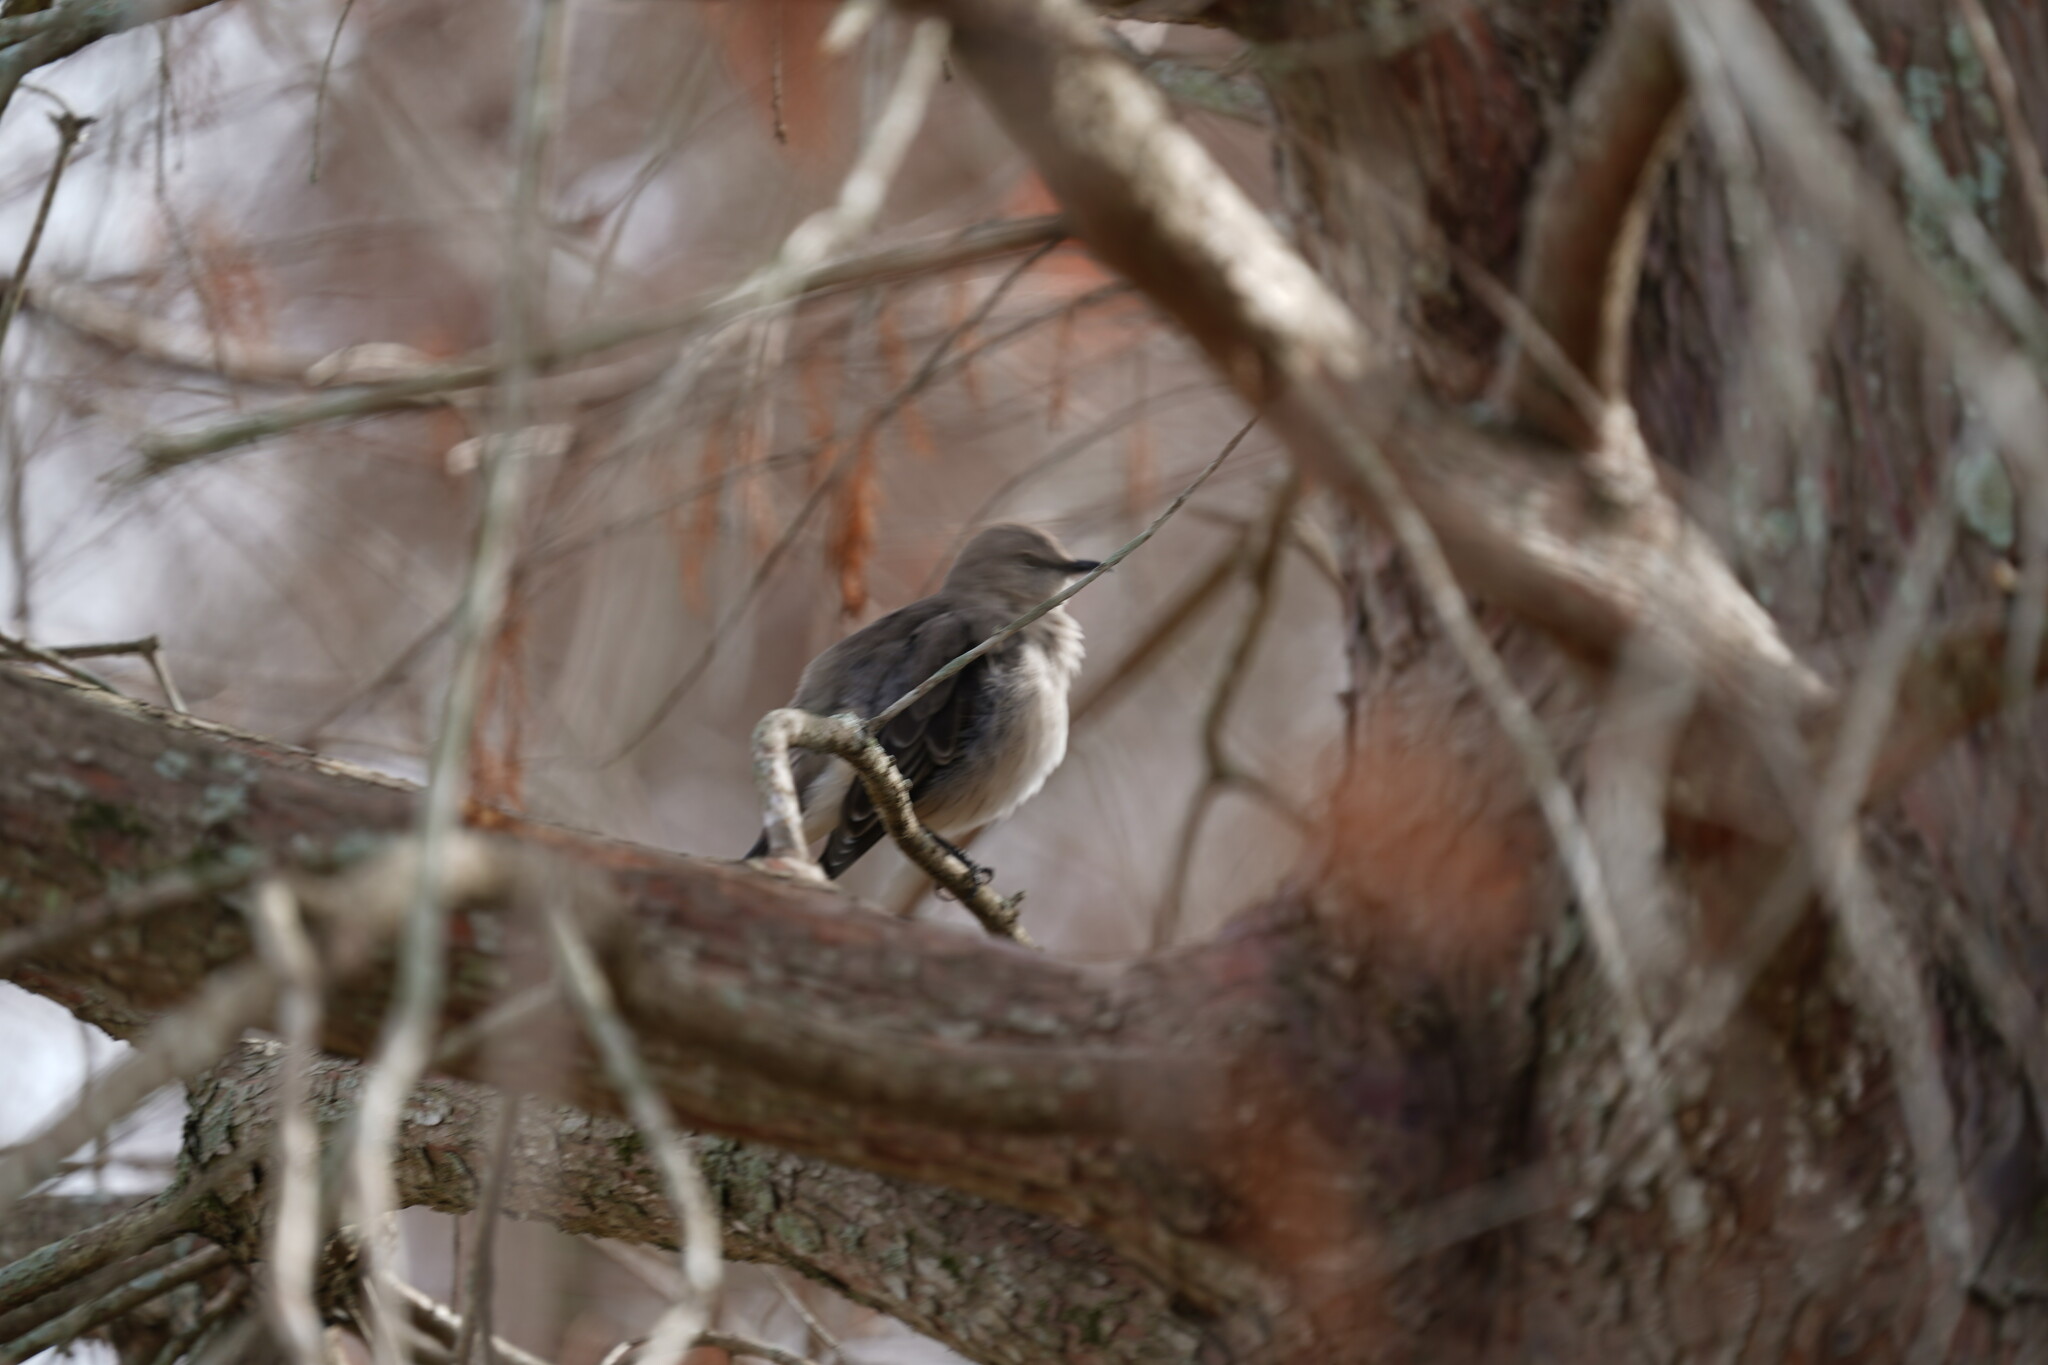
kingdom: Animalia
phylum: Chordata
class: Aves
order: Passeriformes
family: Mimidae
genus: Mimus
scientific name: Mimus polyglottos
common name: Northern mockingbird
